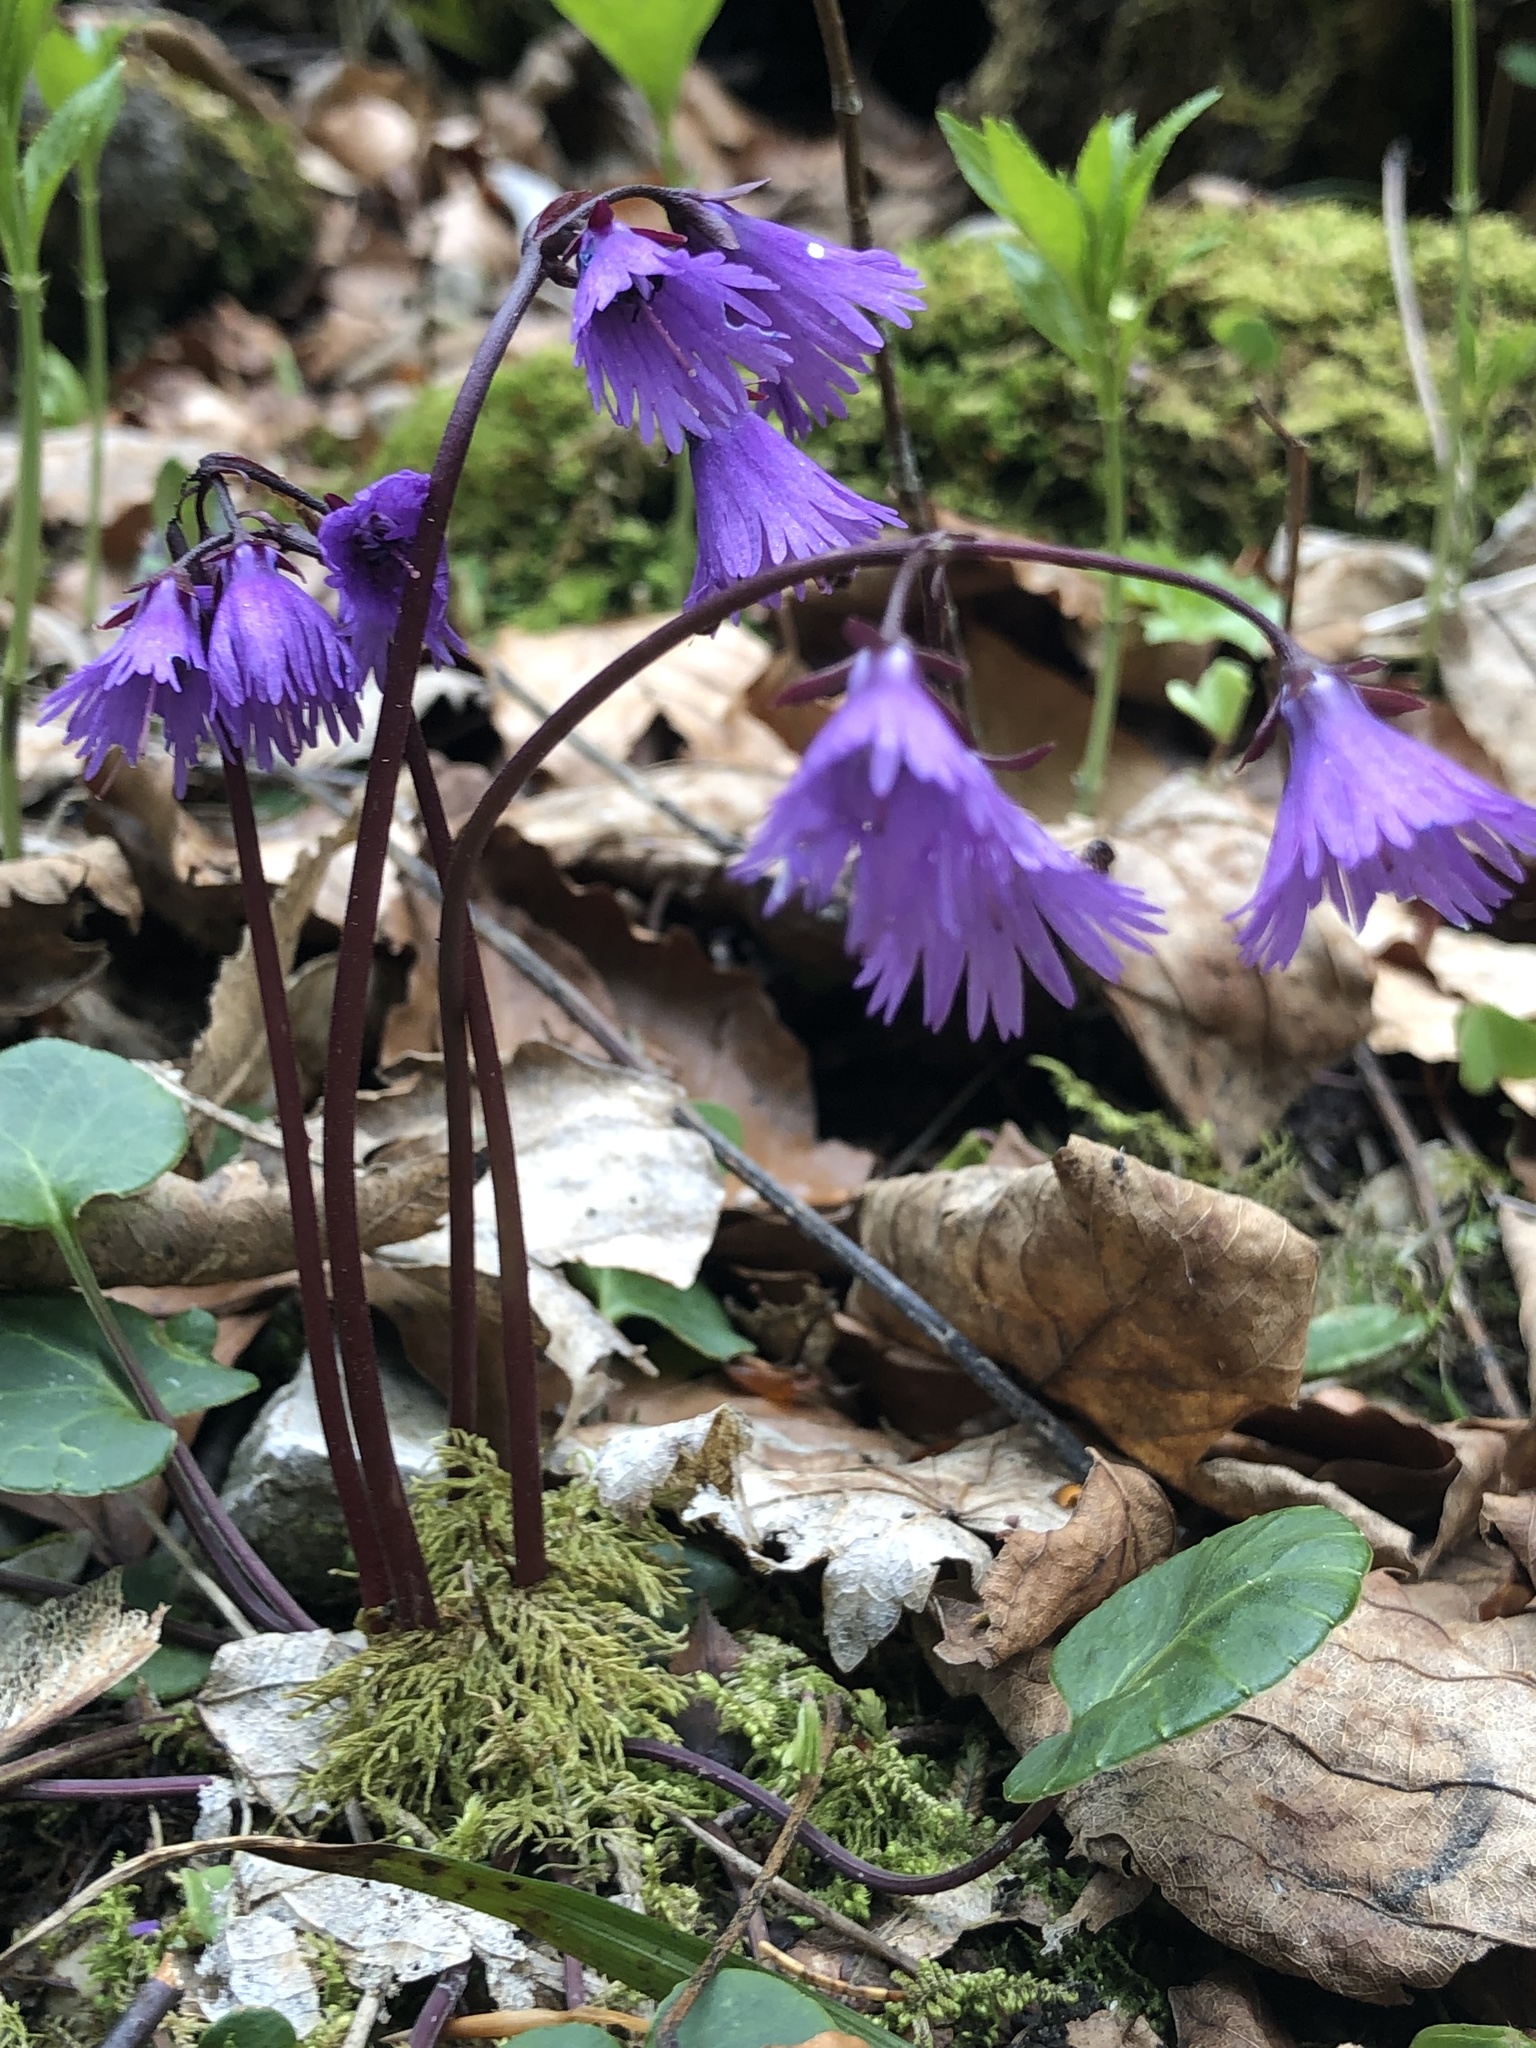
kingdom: Plantae
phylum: Tracheophyta
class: Magnoliopsida
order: Ericales
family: Primulaceae
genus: Soldanella
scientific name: Soldanella alpina
